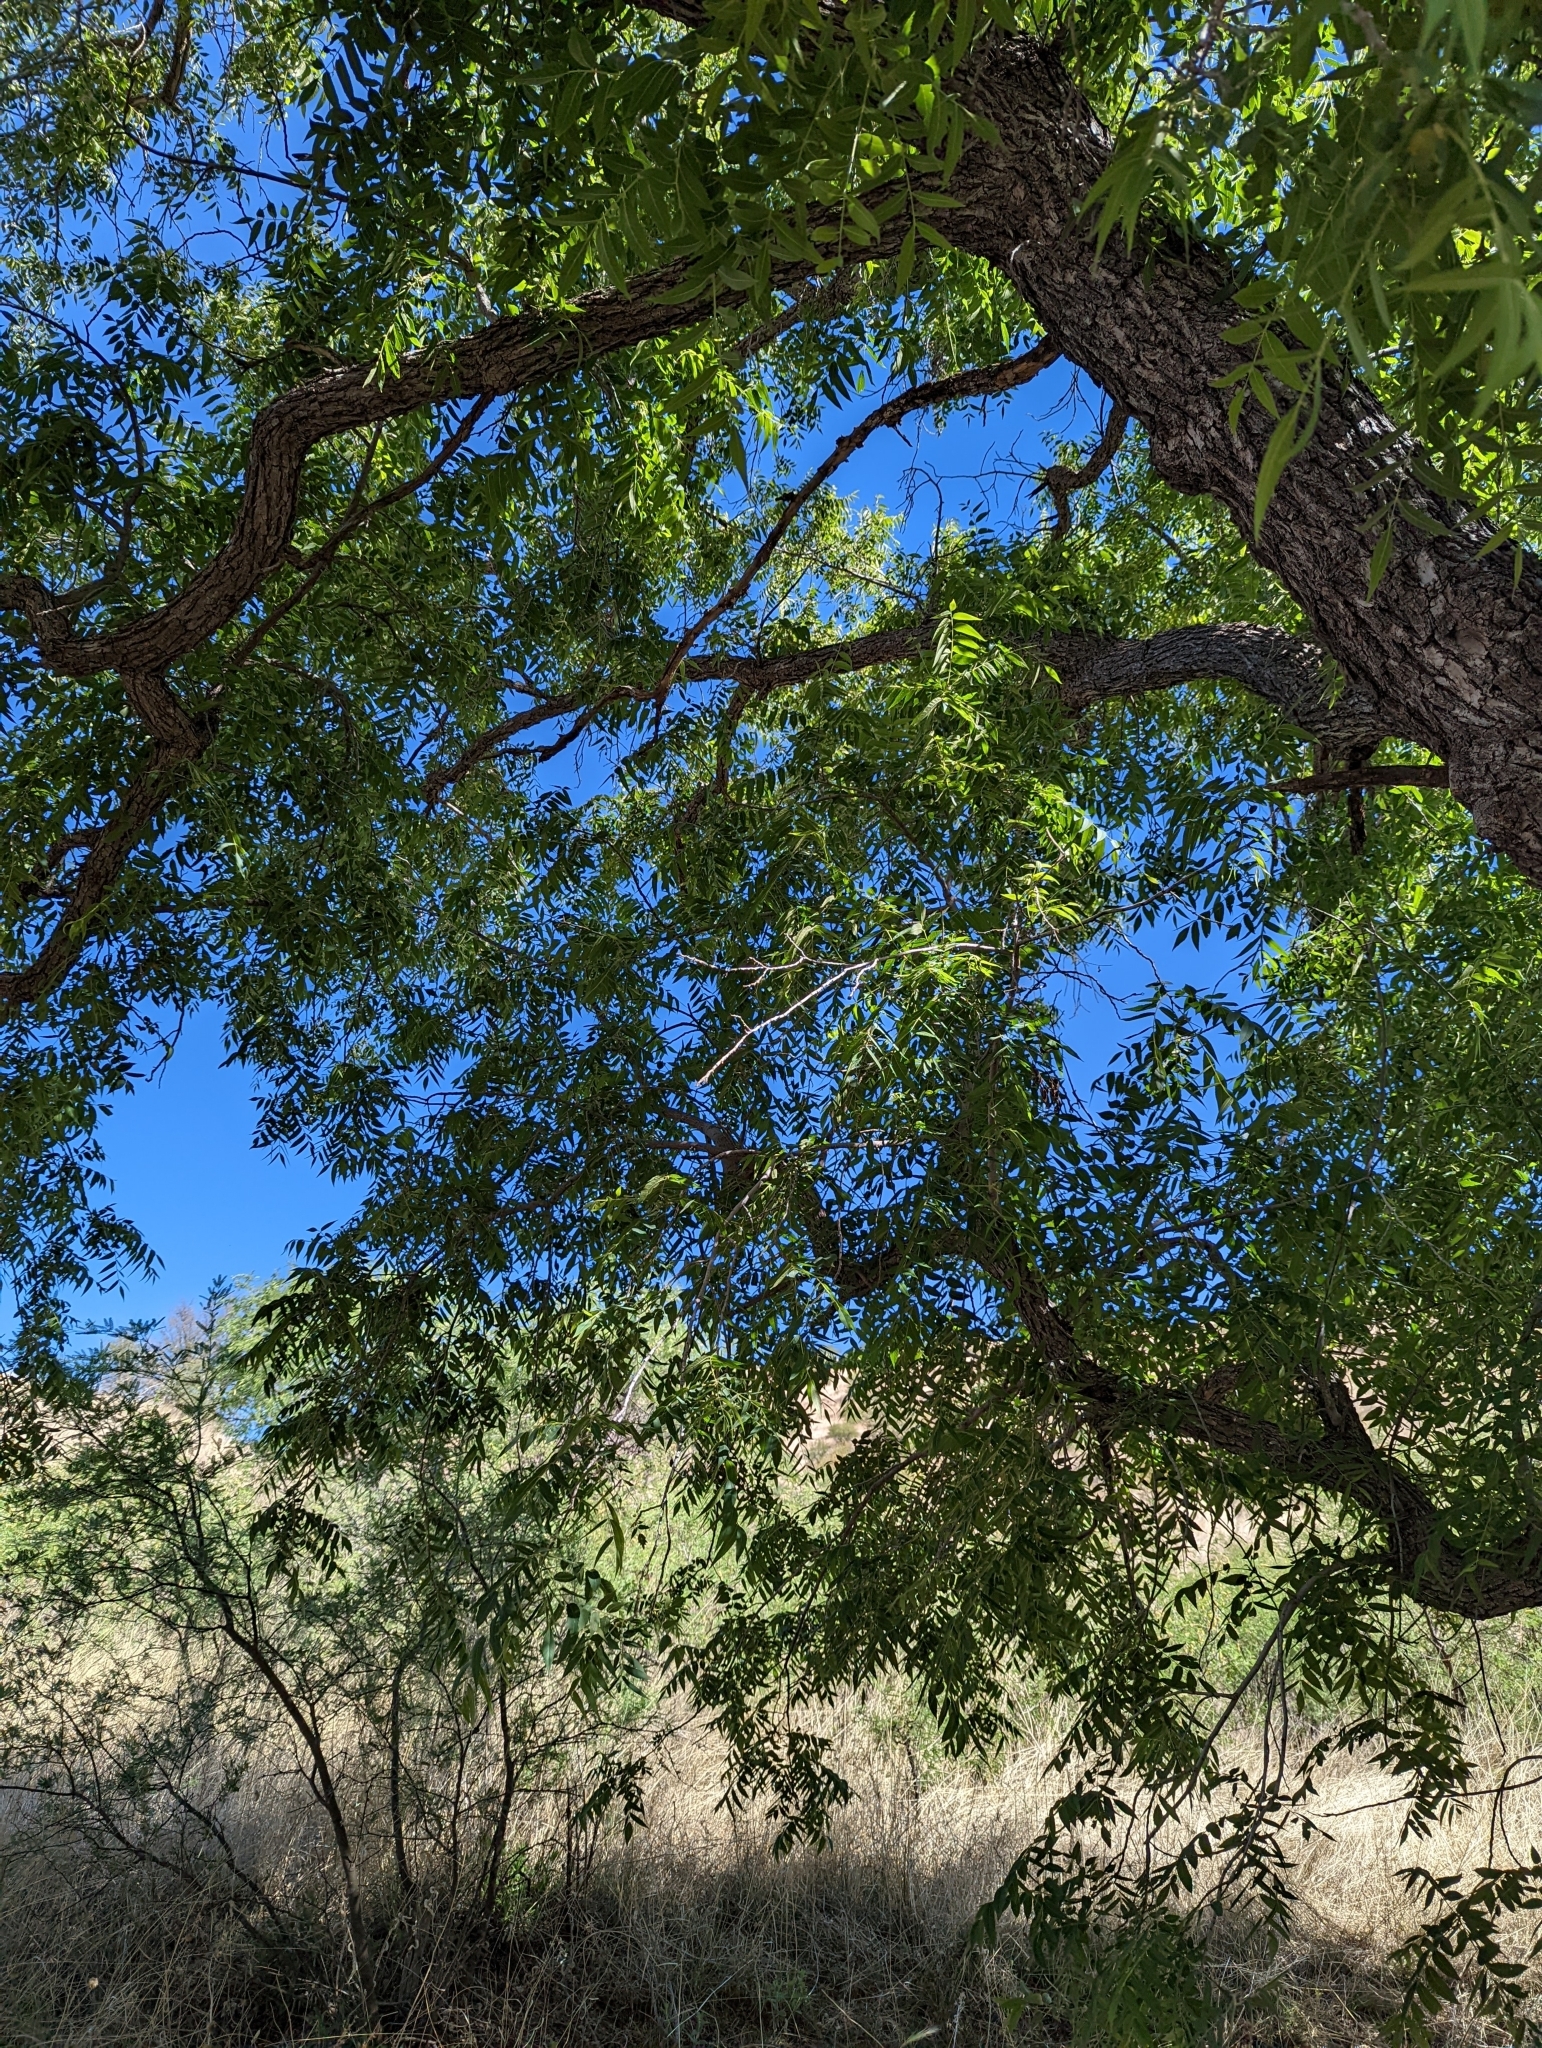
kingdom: Plantae
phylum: Tracheophyta
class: Magnoliopsida
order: Fagales
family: Juglandaceae
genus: Juglans
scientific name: Juglans major
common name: Arizona walnut
